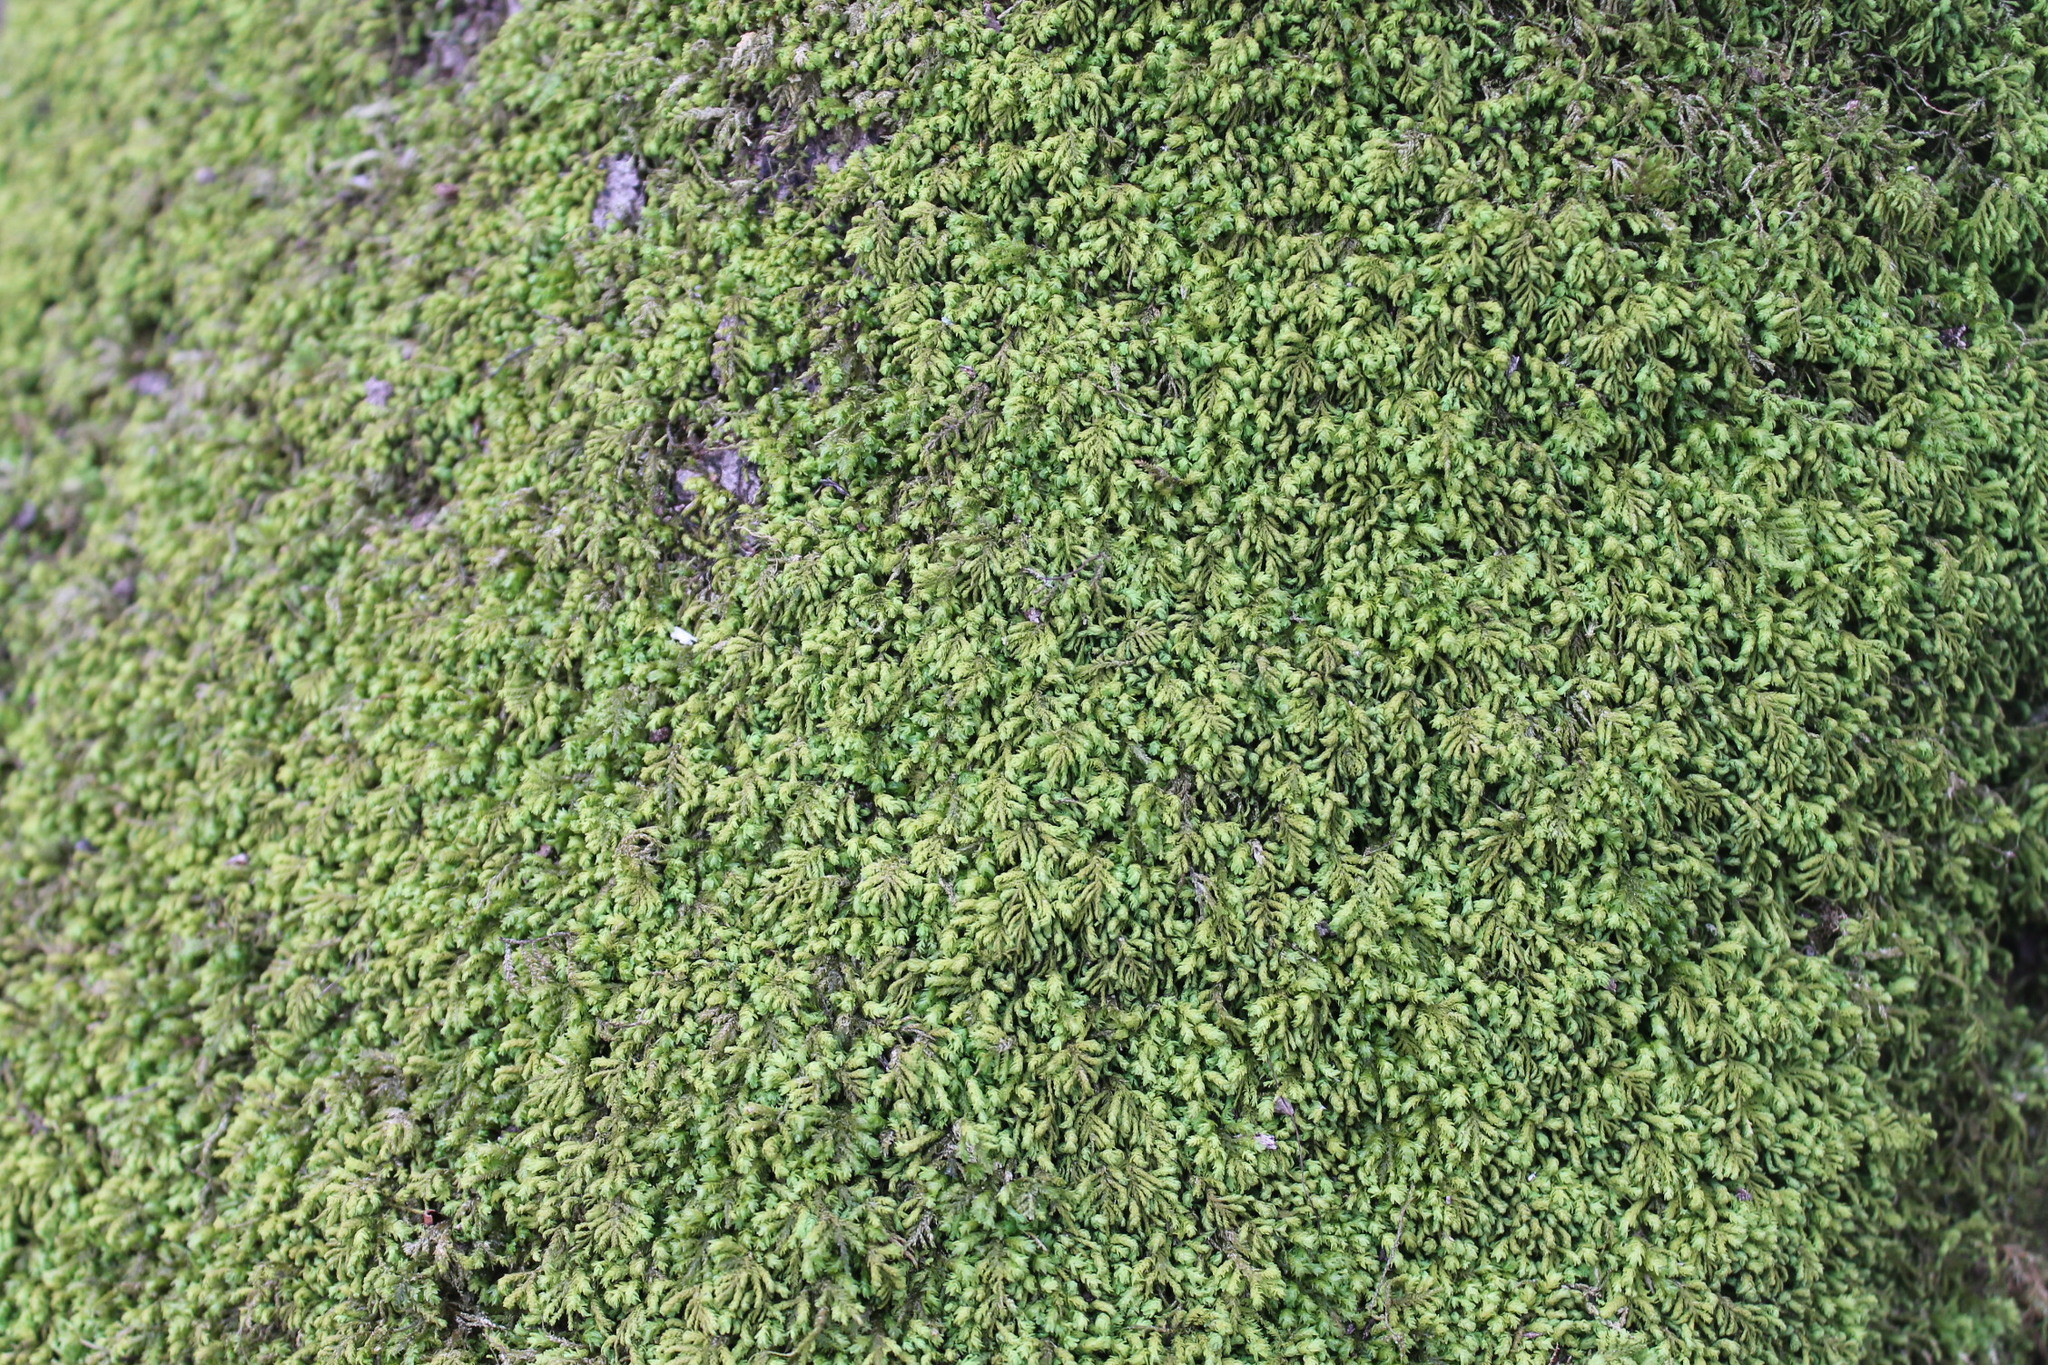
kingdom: Plantae
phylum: Bryophyta
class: Bryopsida
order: Hypnales
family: Neckeraceae
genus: Pseudanomodon
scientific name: Pseudanomodon attenuatus
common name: Tree-skirt moss
